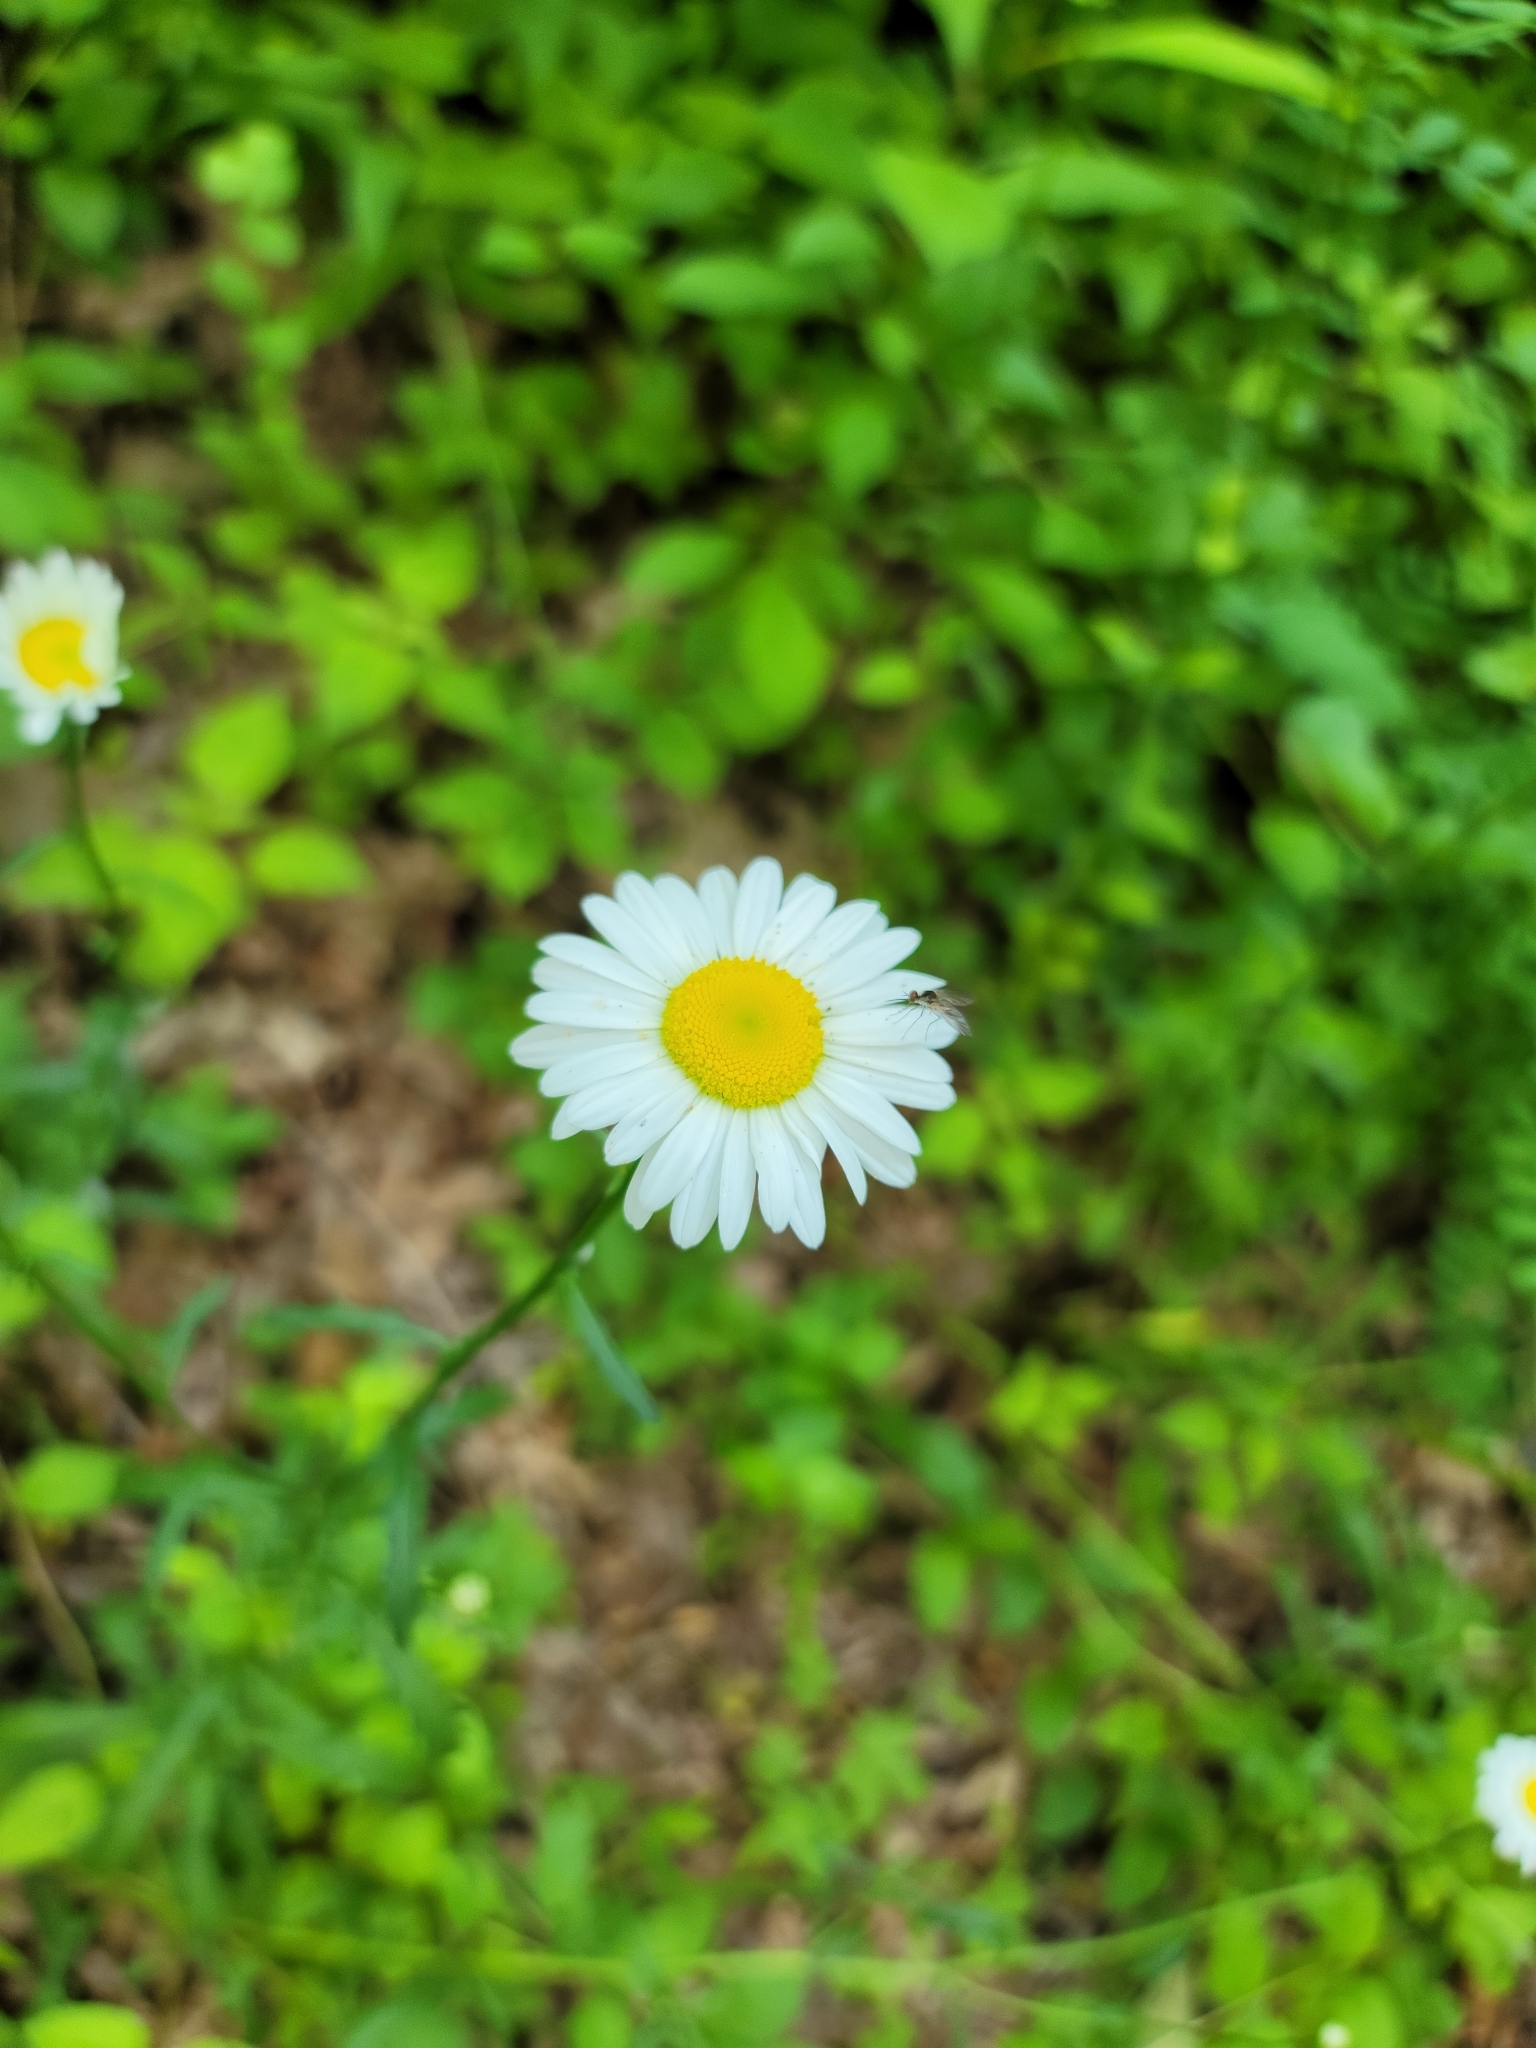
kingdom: Plantae
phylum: Tracheophyta
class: Magnoliopsida
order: Asterales
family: Asteraceae
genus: Leucanthemum
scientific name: Leucanthemum vulgare
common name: Oxeye daisy
